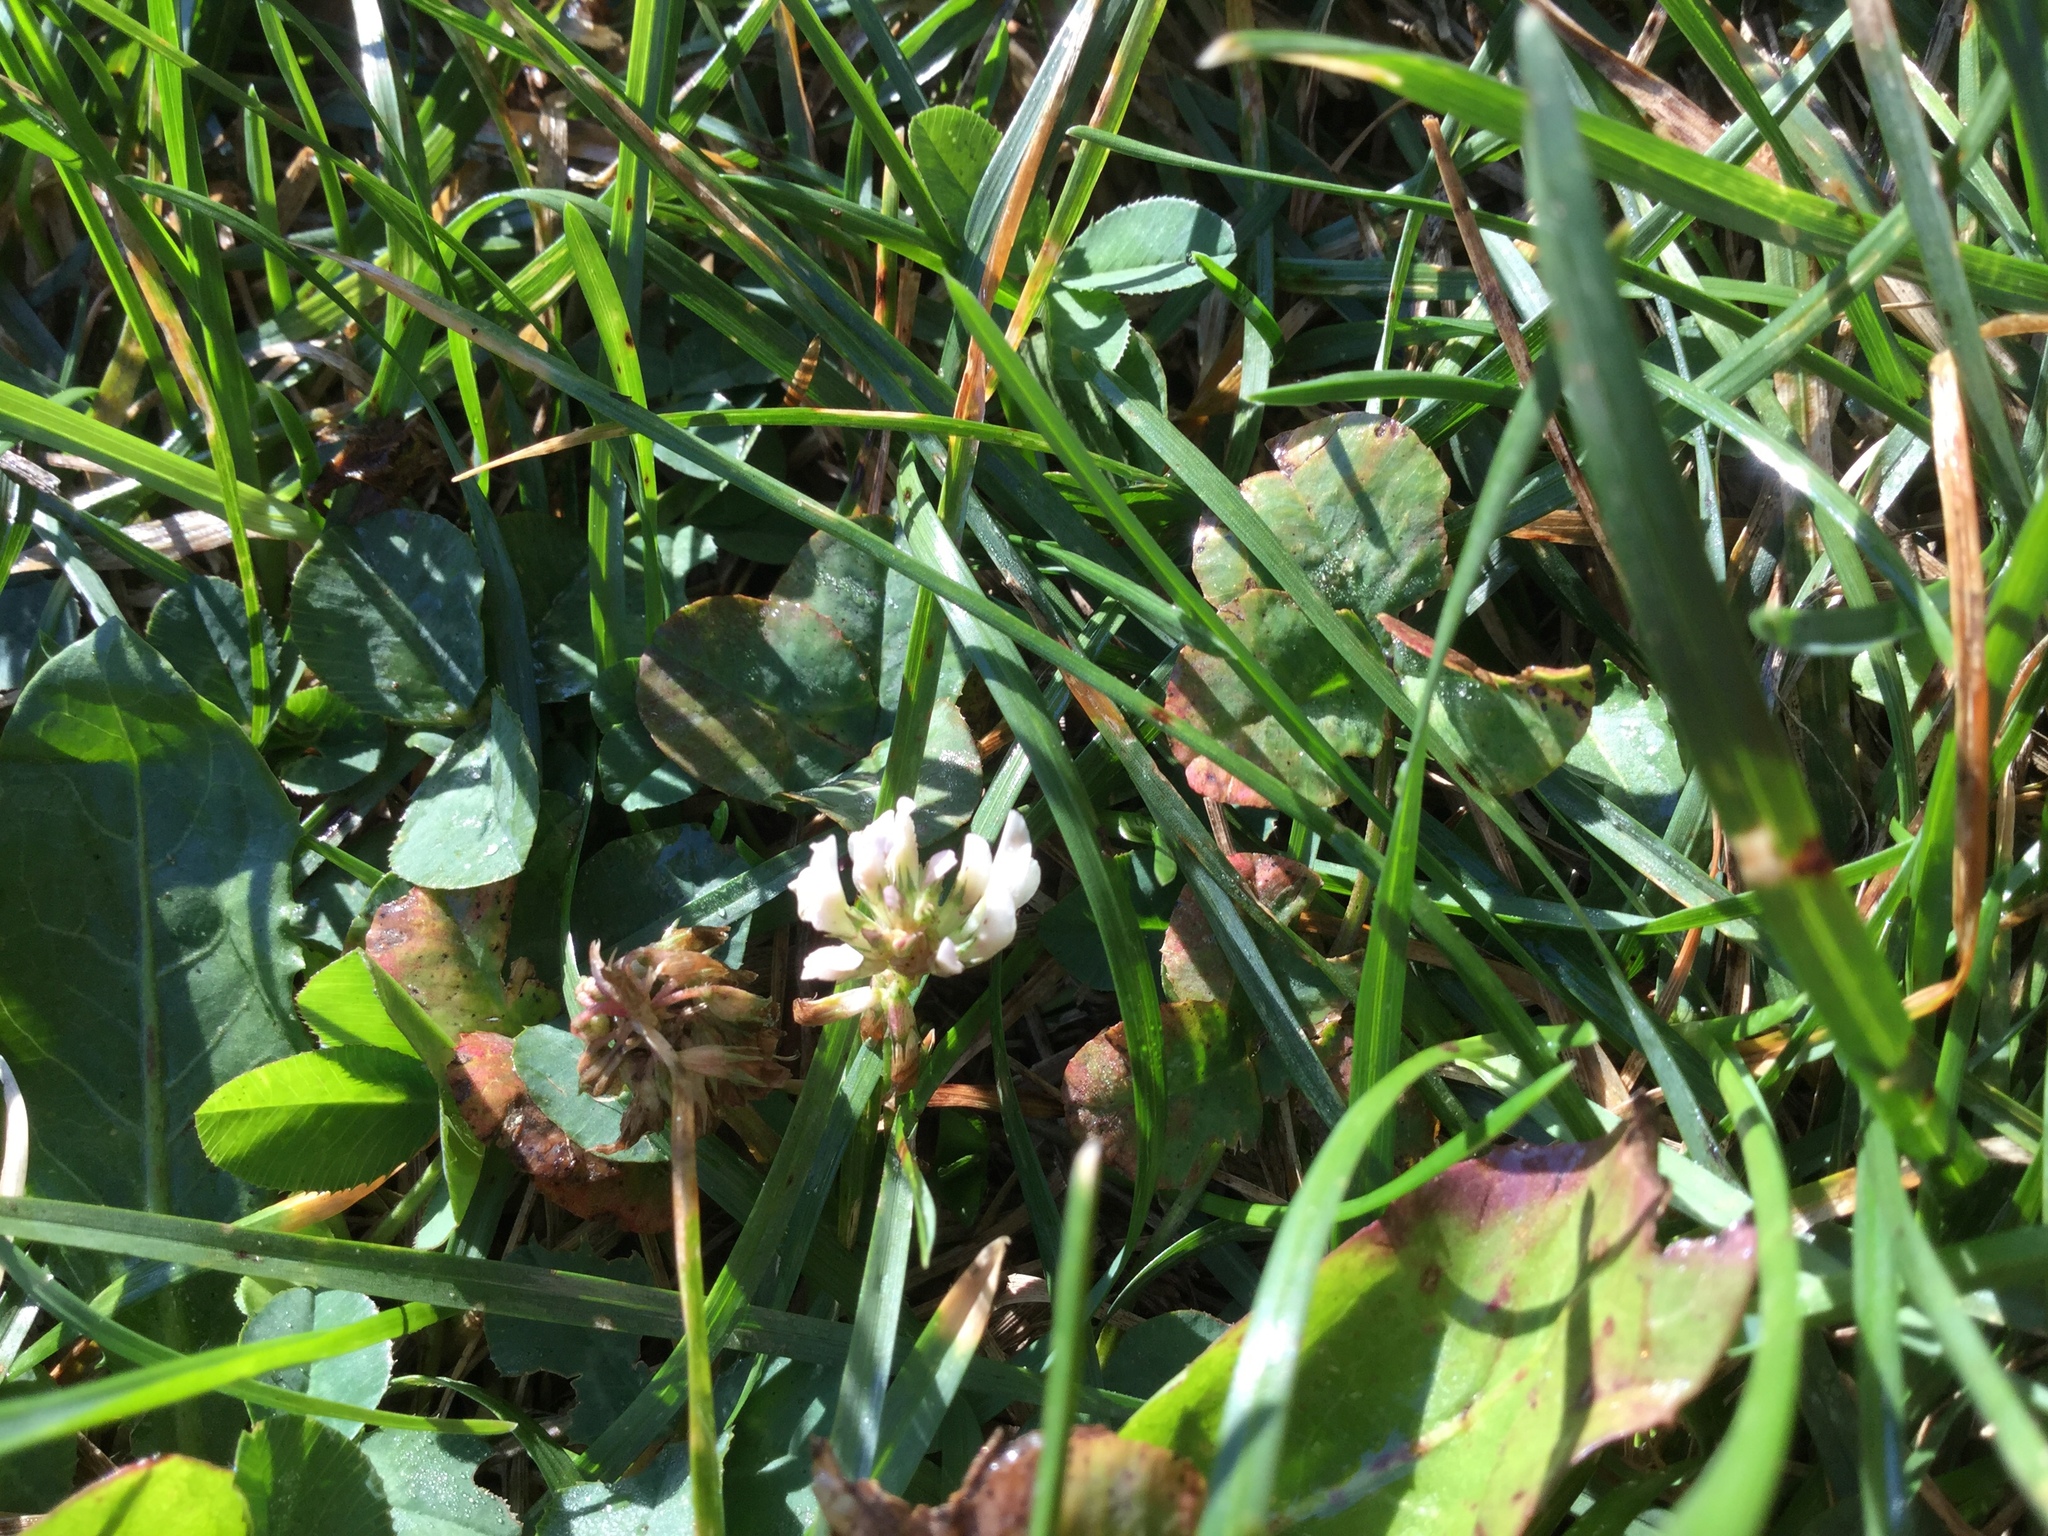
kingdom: Plantae
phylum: Tracheophyta
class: Magnoliopsida
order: Fabales
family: Fabaceae
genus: Trifolium
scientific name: Trifolium repens
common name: White clover
